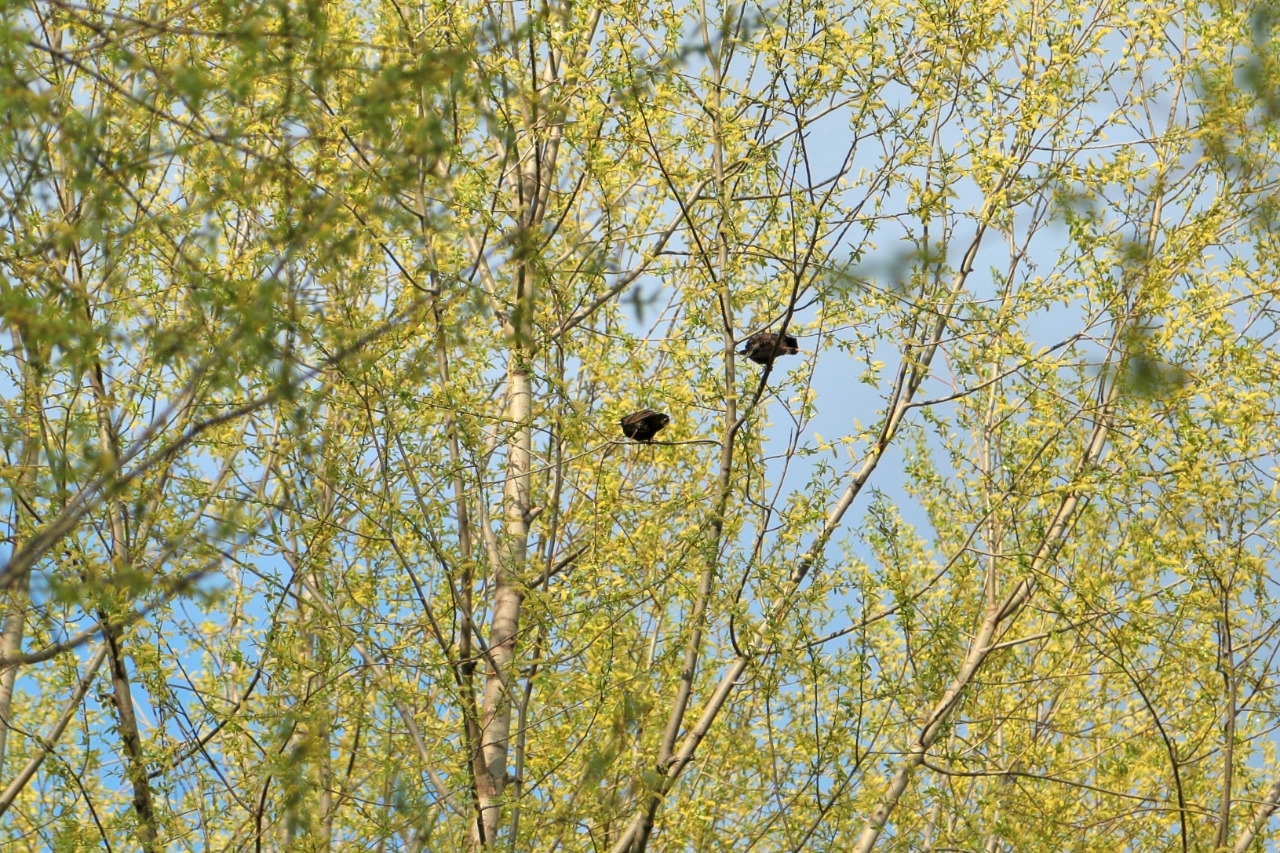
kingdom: Animalia
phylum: Chordata
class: Aves
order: Passeriformes
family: Sturnidae
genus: Sturnus
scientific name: Sturnus vulgaris
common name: Common starling
